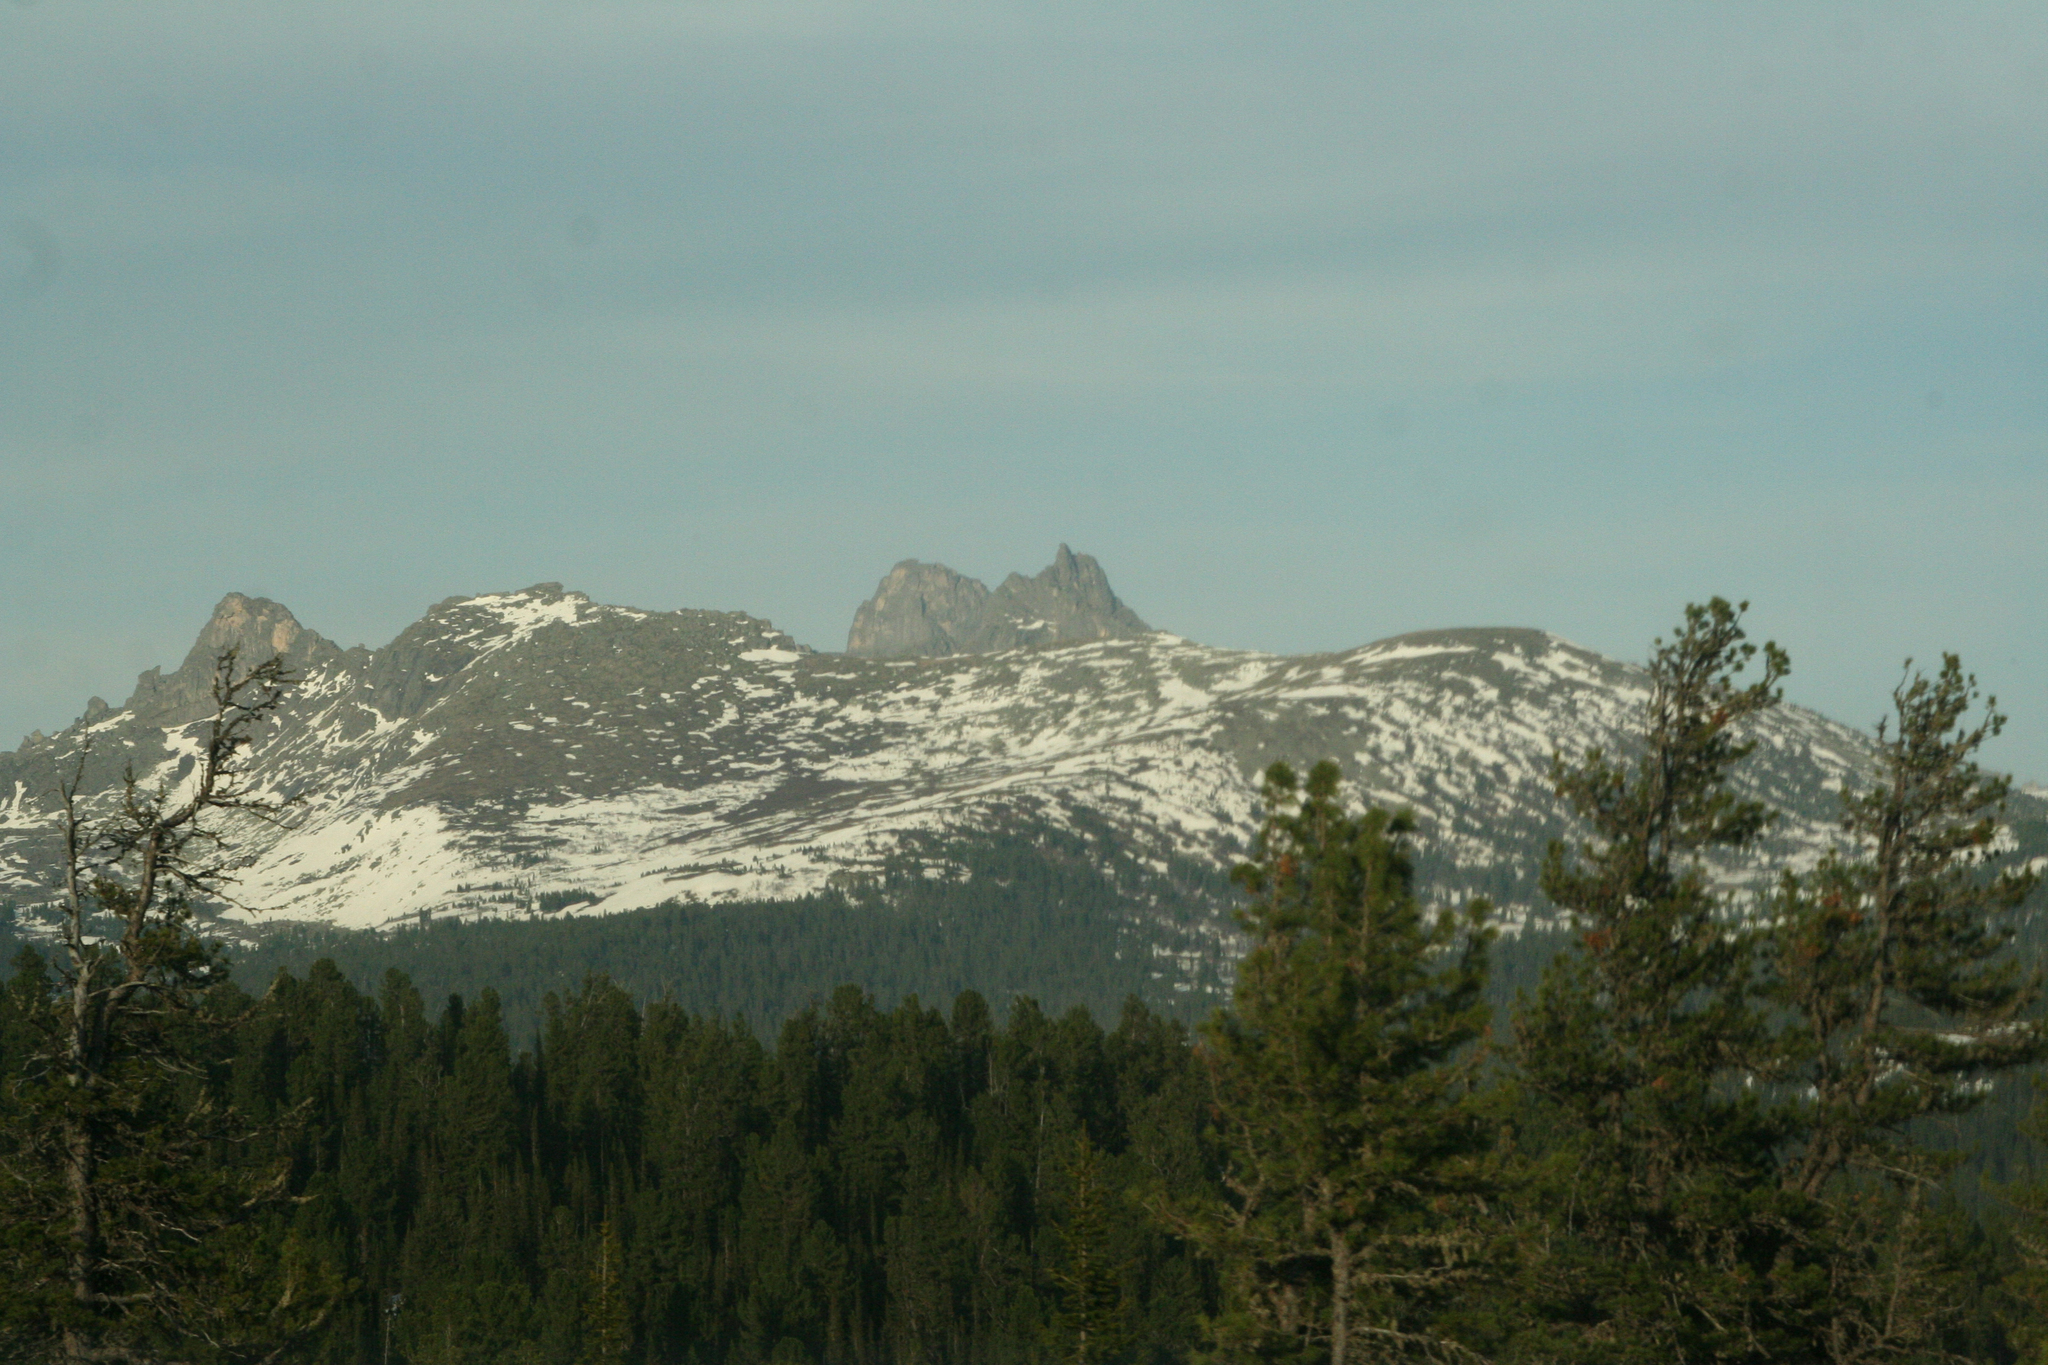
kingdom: Plantae
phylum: Tracheophyta
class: Pinopsida
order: Pinales
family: Pinaceae
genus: Pinus
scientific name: Pinus sibirica
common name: Siberian pine
